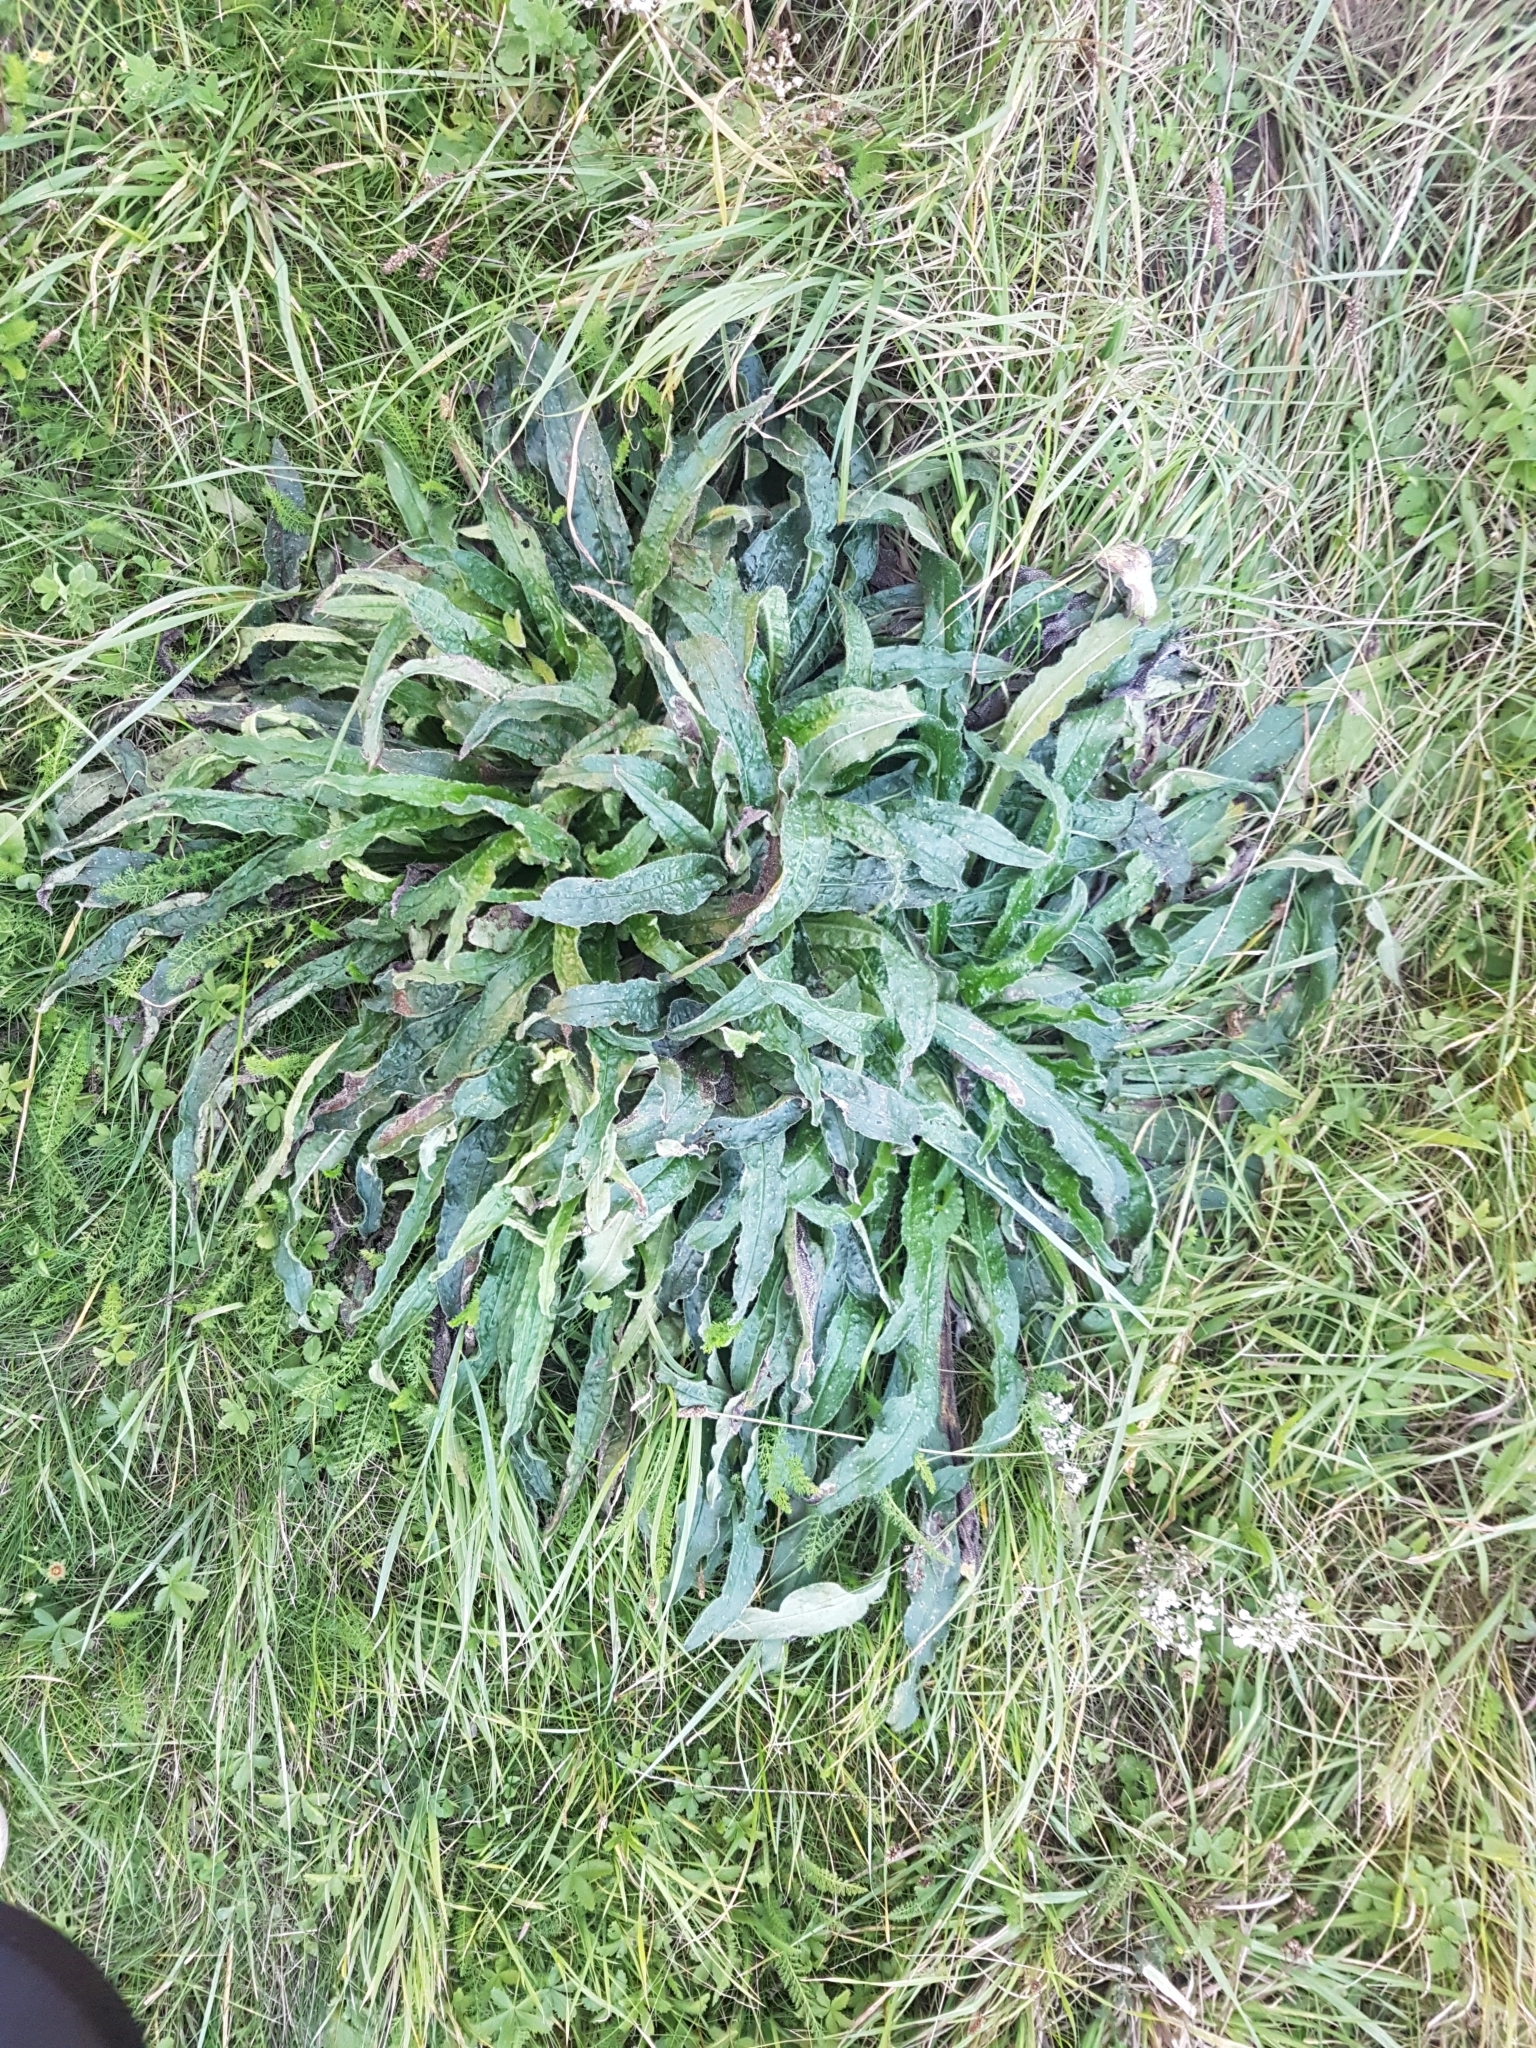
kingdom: Plantae
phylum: Tracheophyta
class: Magnoliopsida
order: Boraginales
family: Boraginaceae
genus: Echium
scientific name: Echium vulgare
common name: Common viper's bugloss
